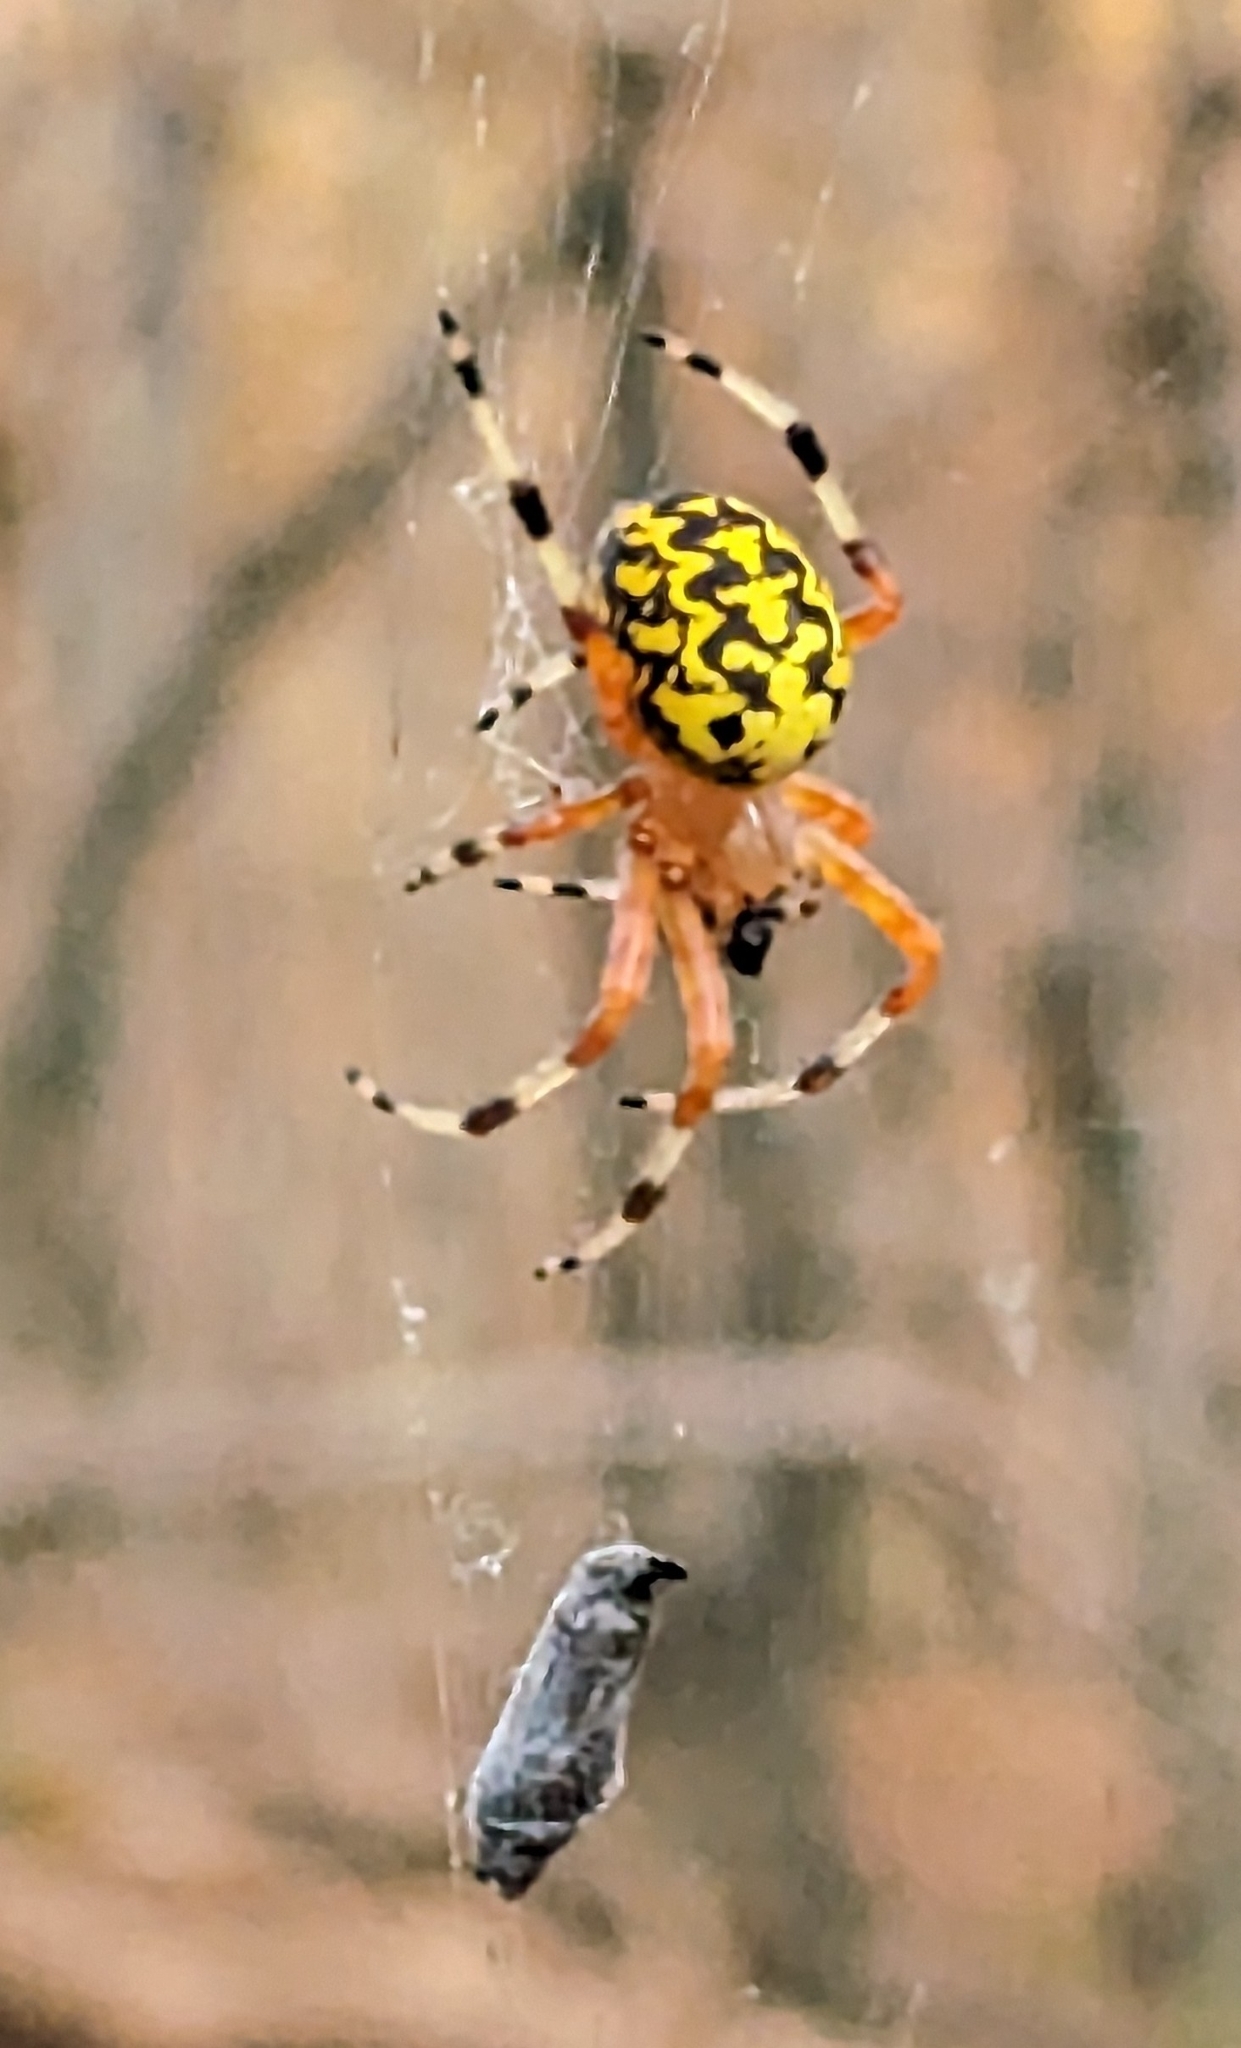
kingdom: Animalia
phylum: Arthropoda
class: Arachnida
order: Araneae
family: Araneidae
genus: Araneus
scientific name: Araneus marmoreus
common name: Marbled orbweaver
